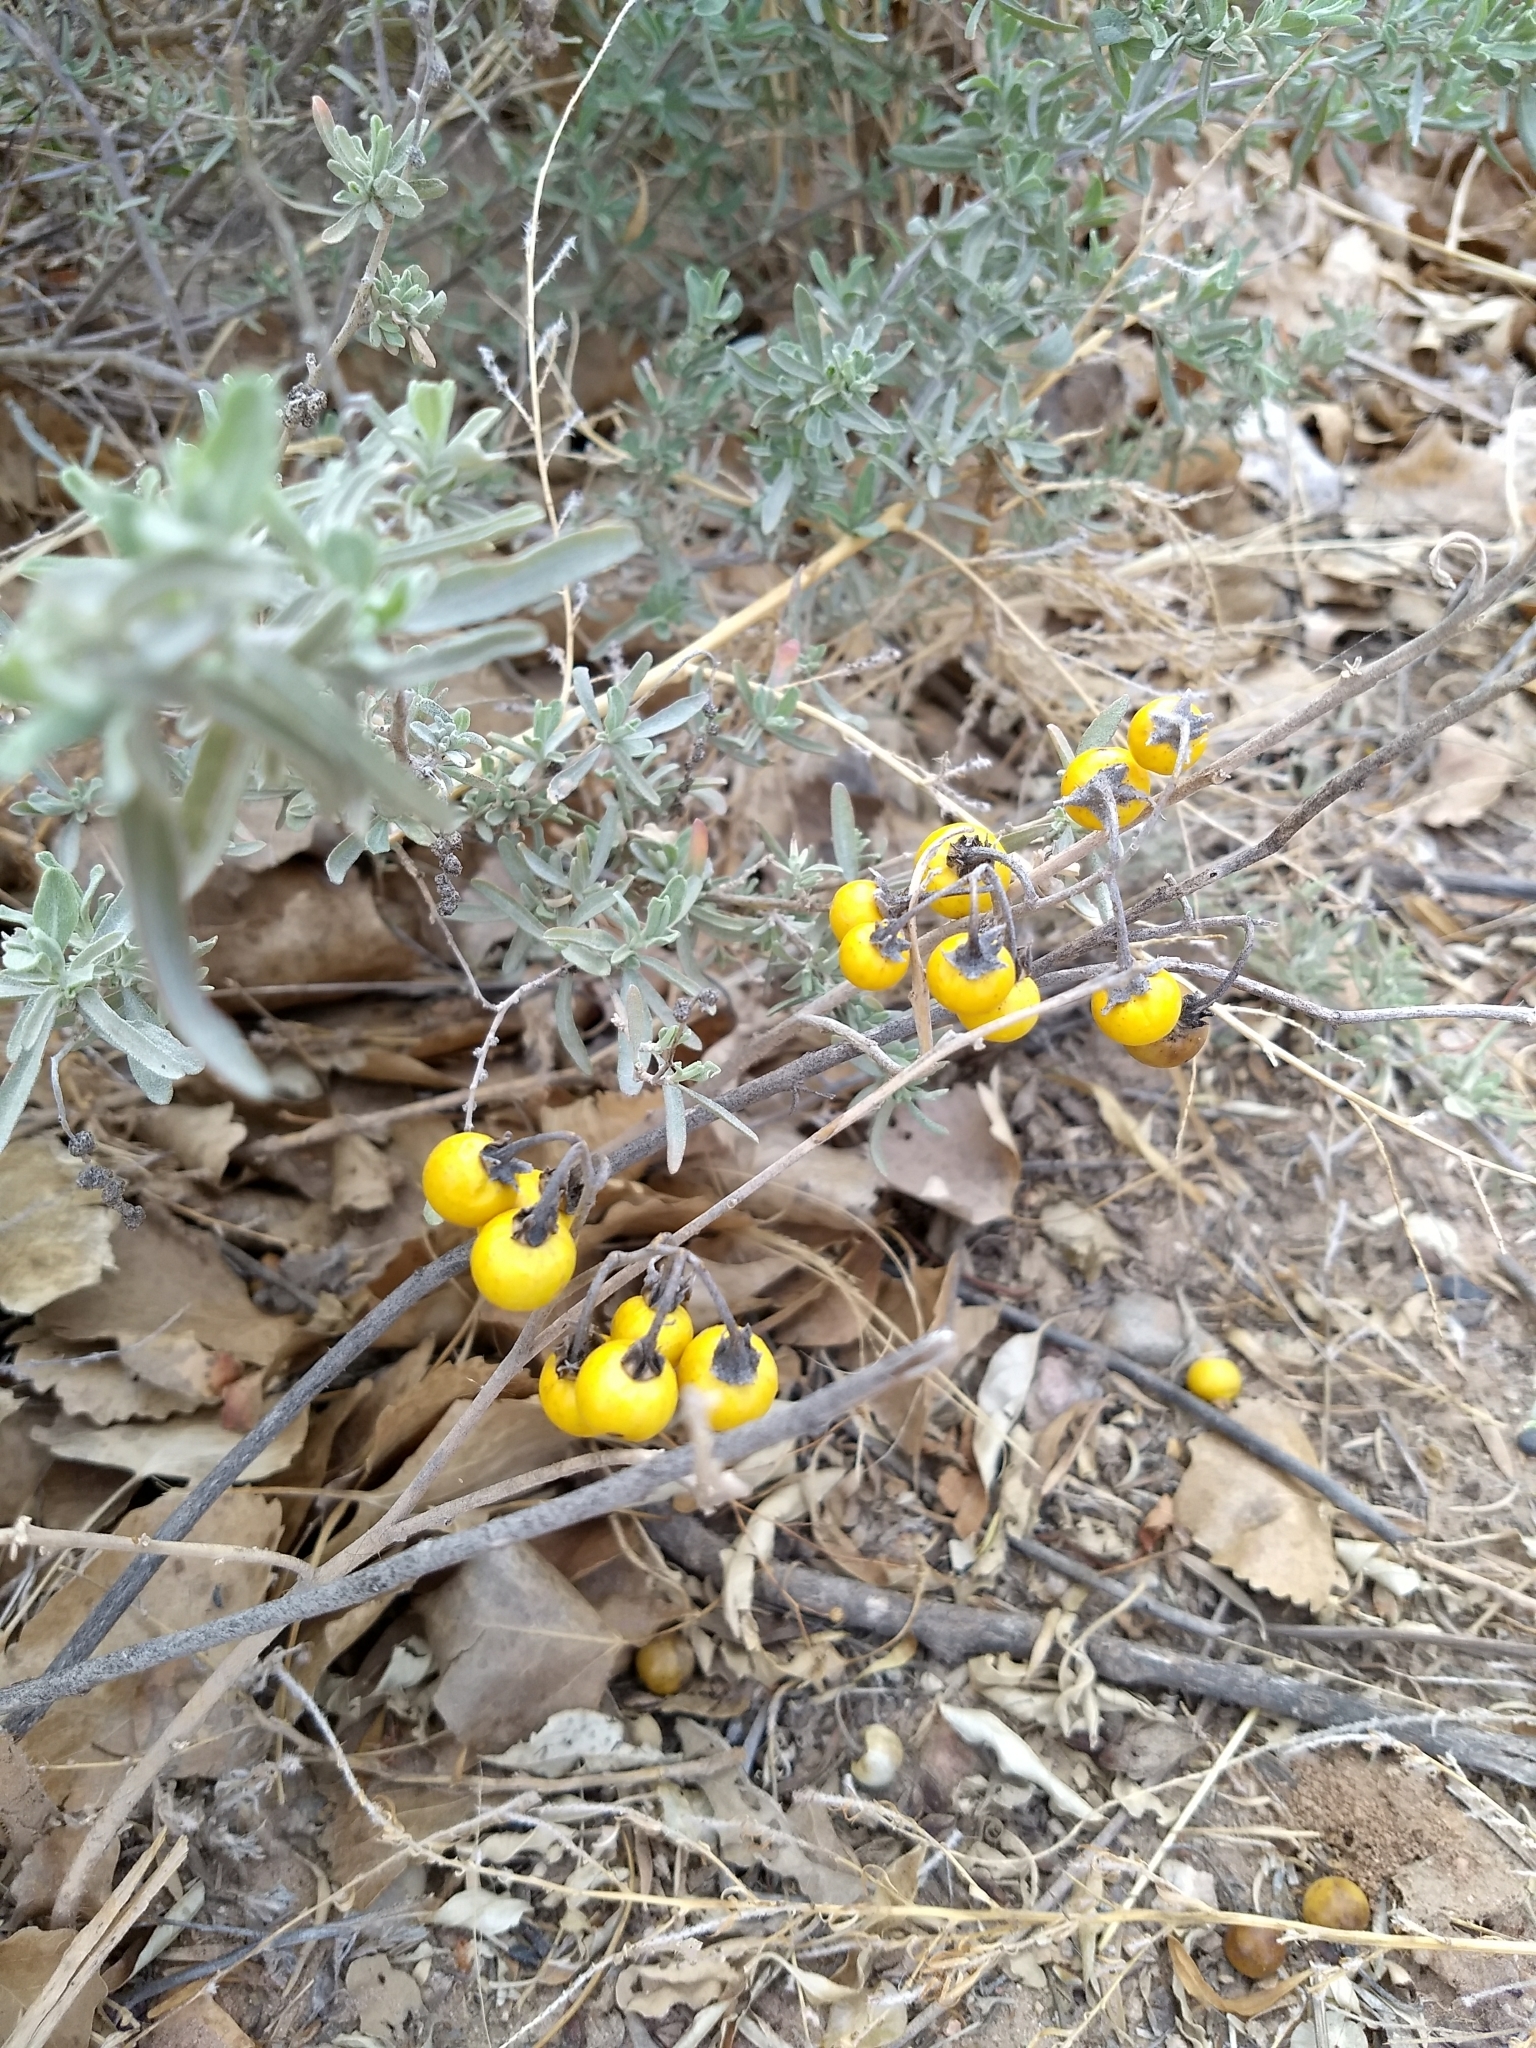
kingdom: Plantae
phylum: Tracheophyta
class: Magnoliopsida
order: Solanales
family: Solanaceae
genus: Solanum
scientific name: Solanum elaeagnifolium
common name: Silverleaf nightshade
